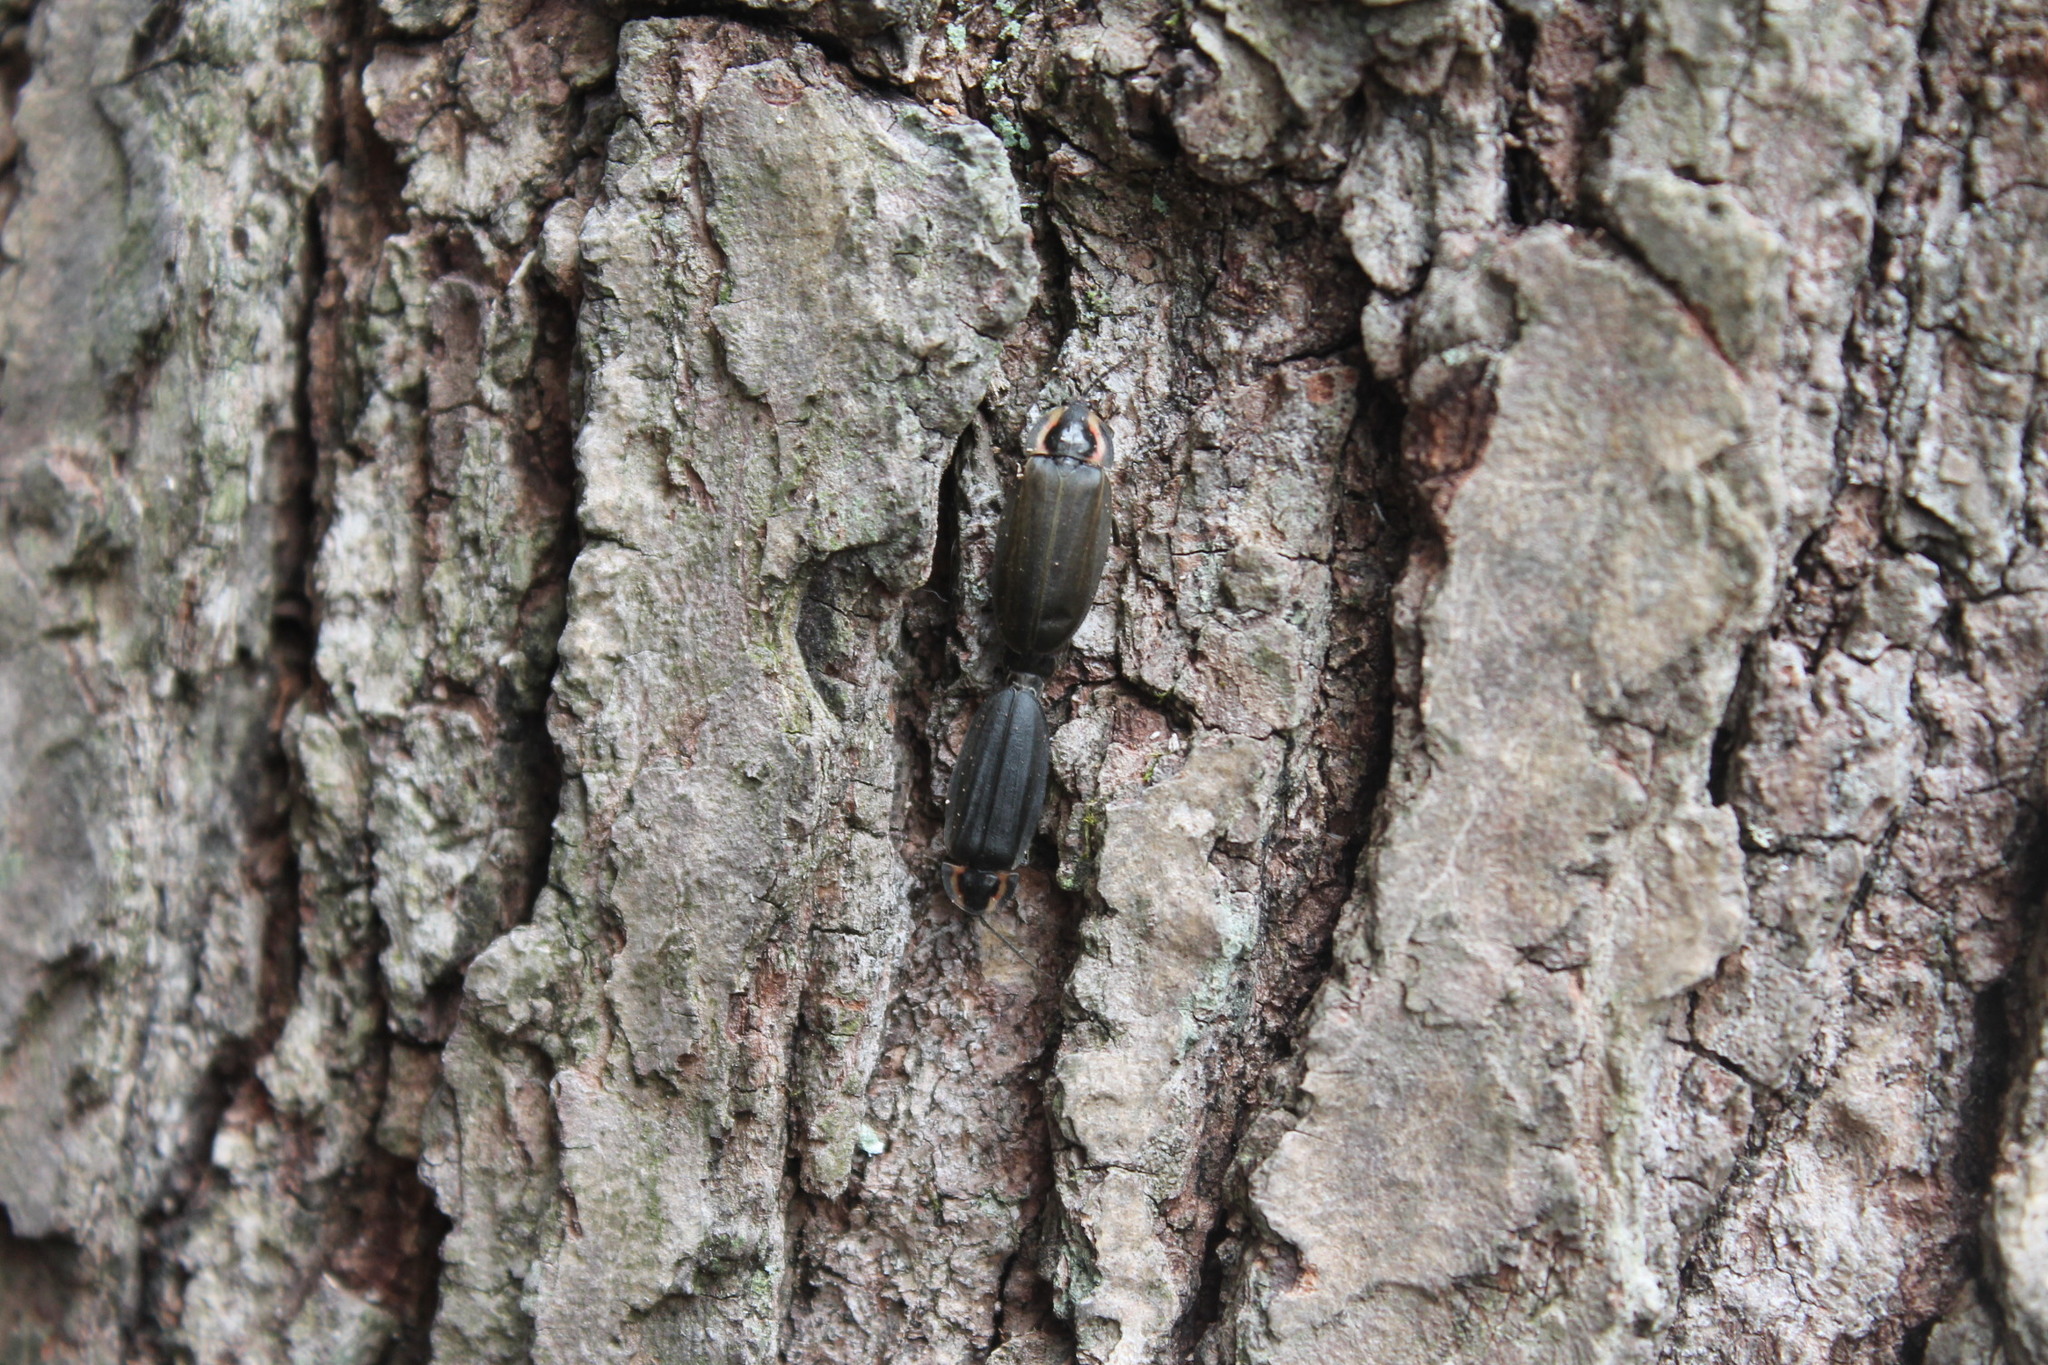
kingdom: Animalia
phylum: Arthropoda
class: Insecta
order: Coleoptera
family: Lampyridae
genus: Photinus
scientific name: Photinus corrusca
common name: Winter firefly
